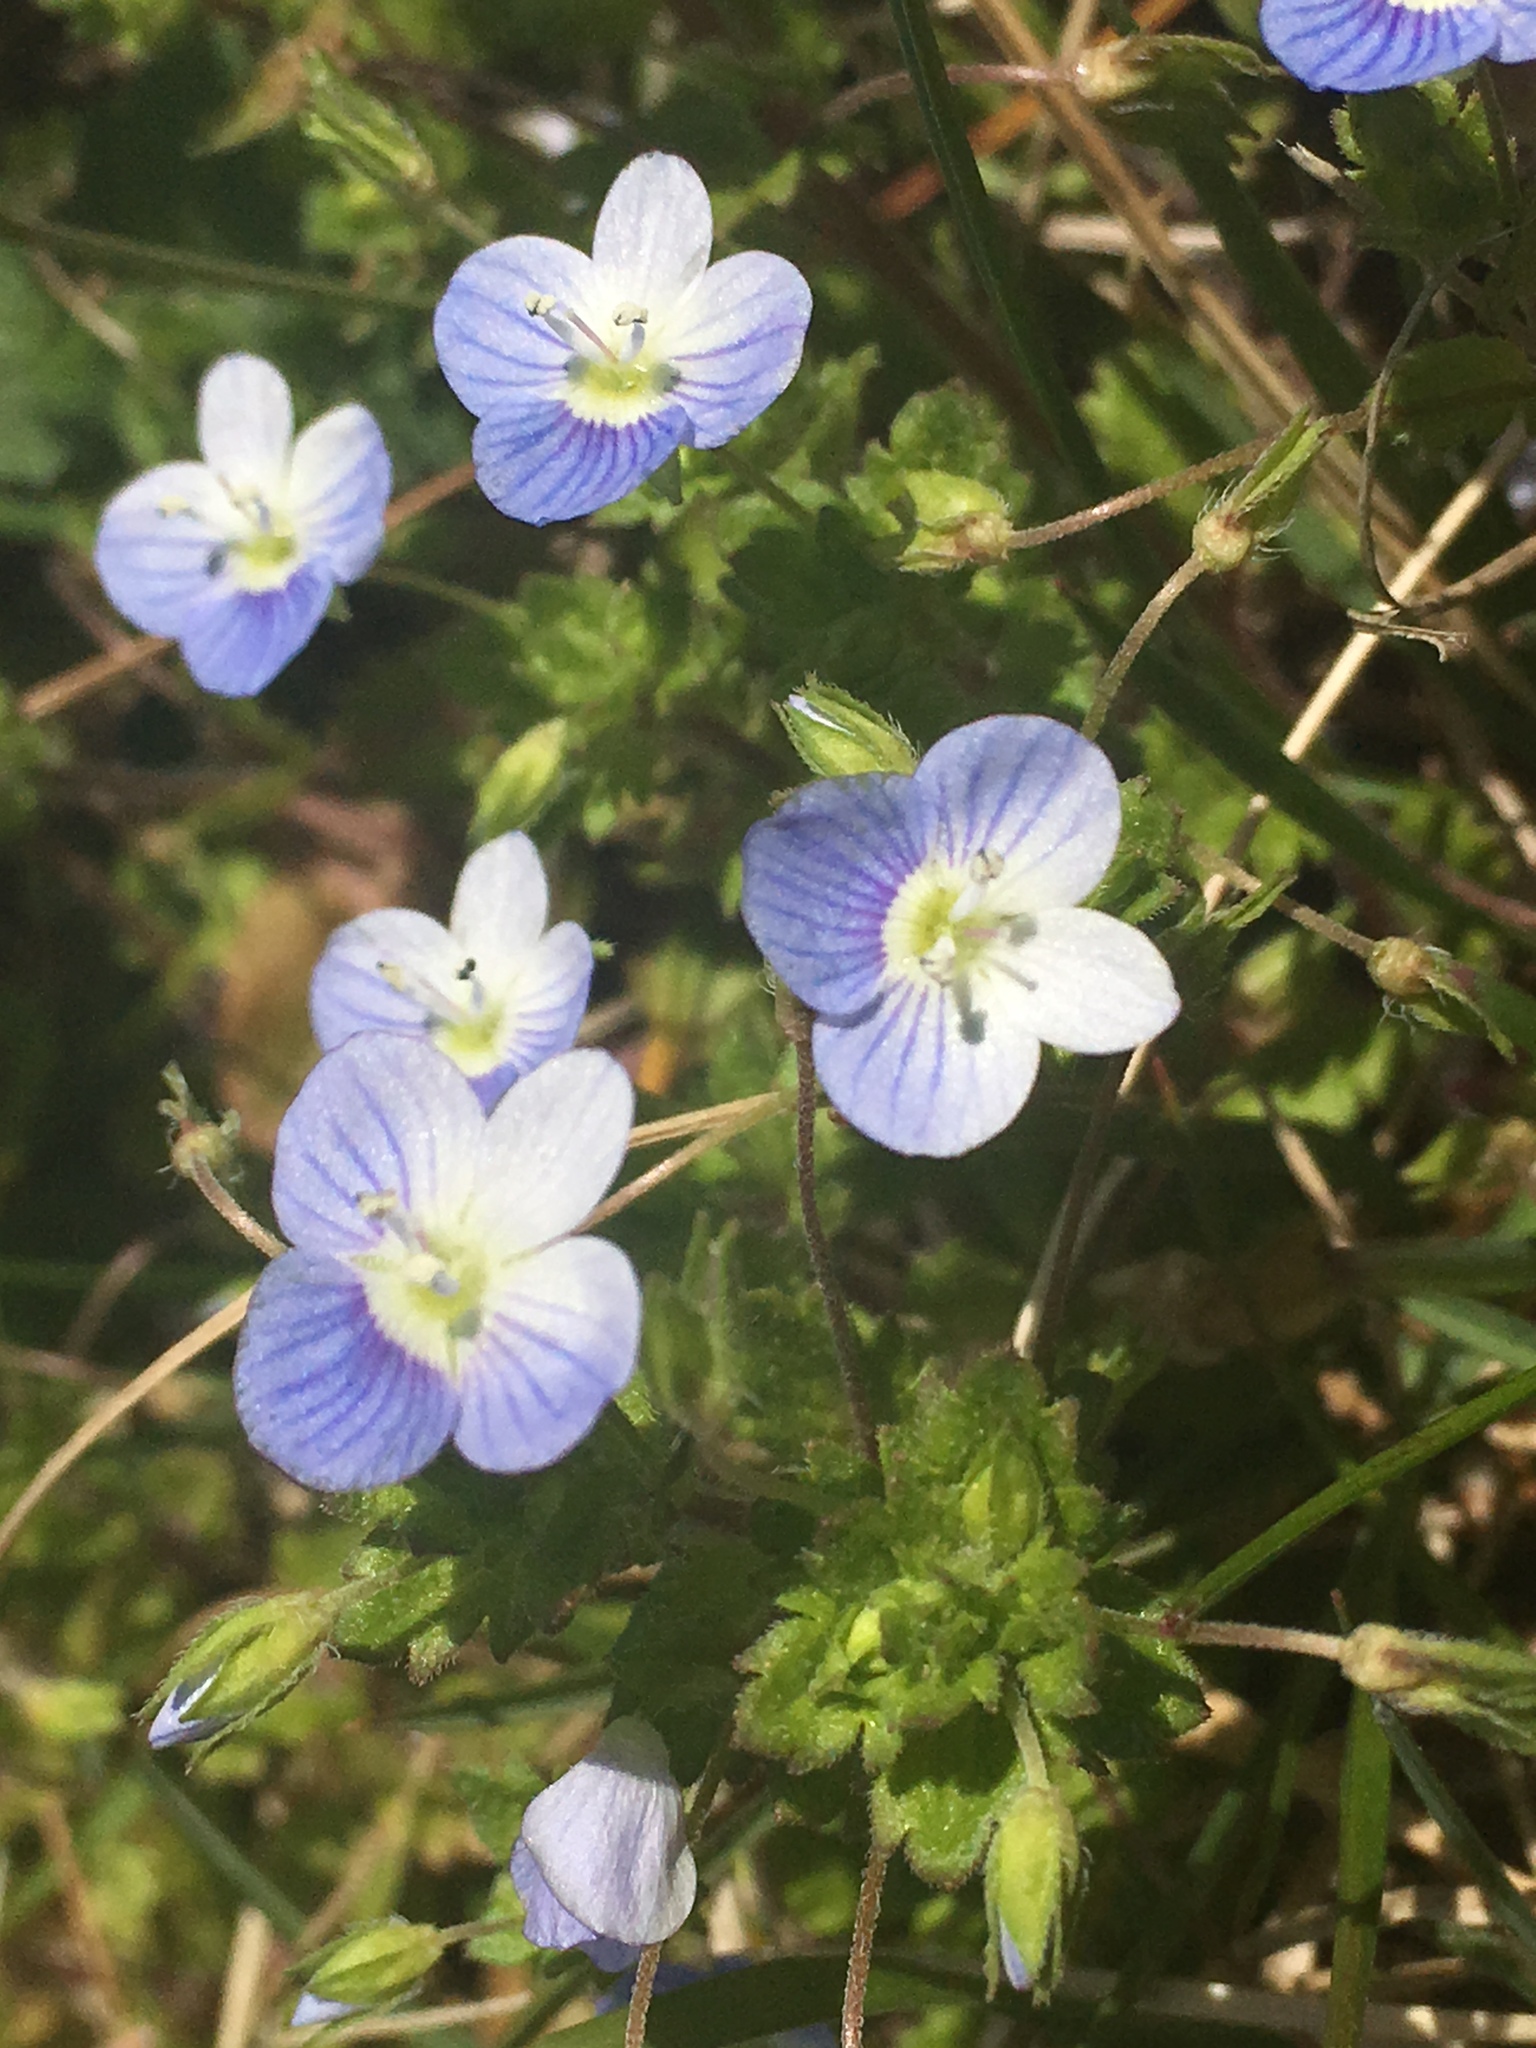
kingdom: Plantae
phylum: Tracheophyta
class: Magnoliopsida
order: Lamiales
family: Plantaginaceae
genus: Veronica
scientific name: Veronica persica
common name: Common field-speedwell
